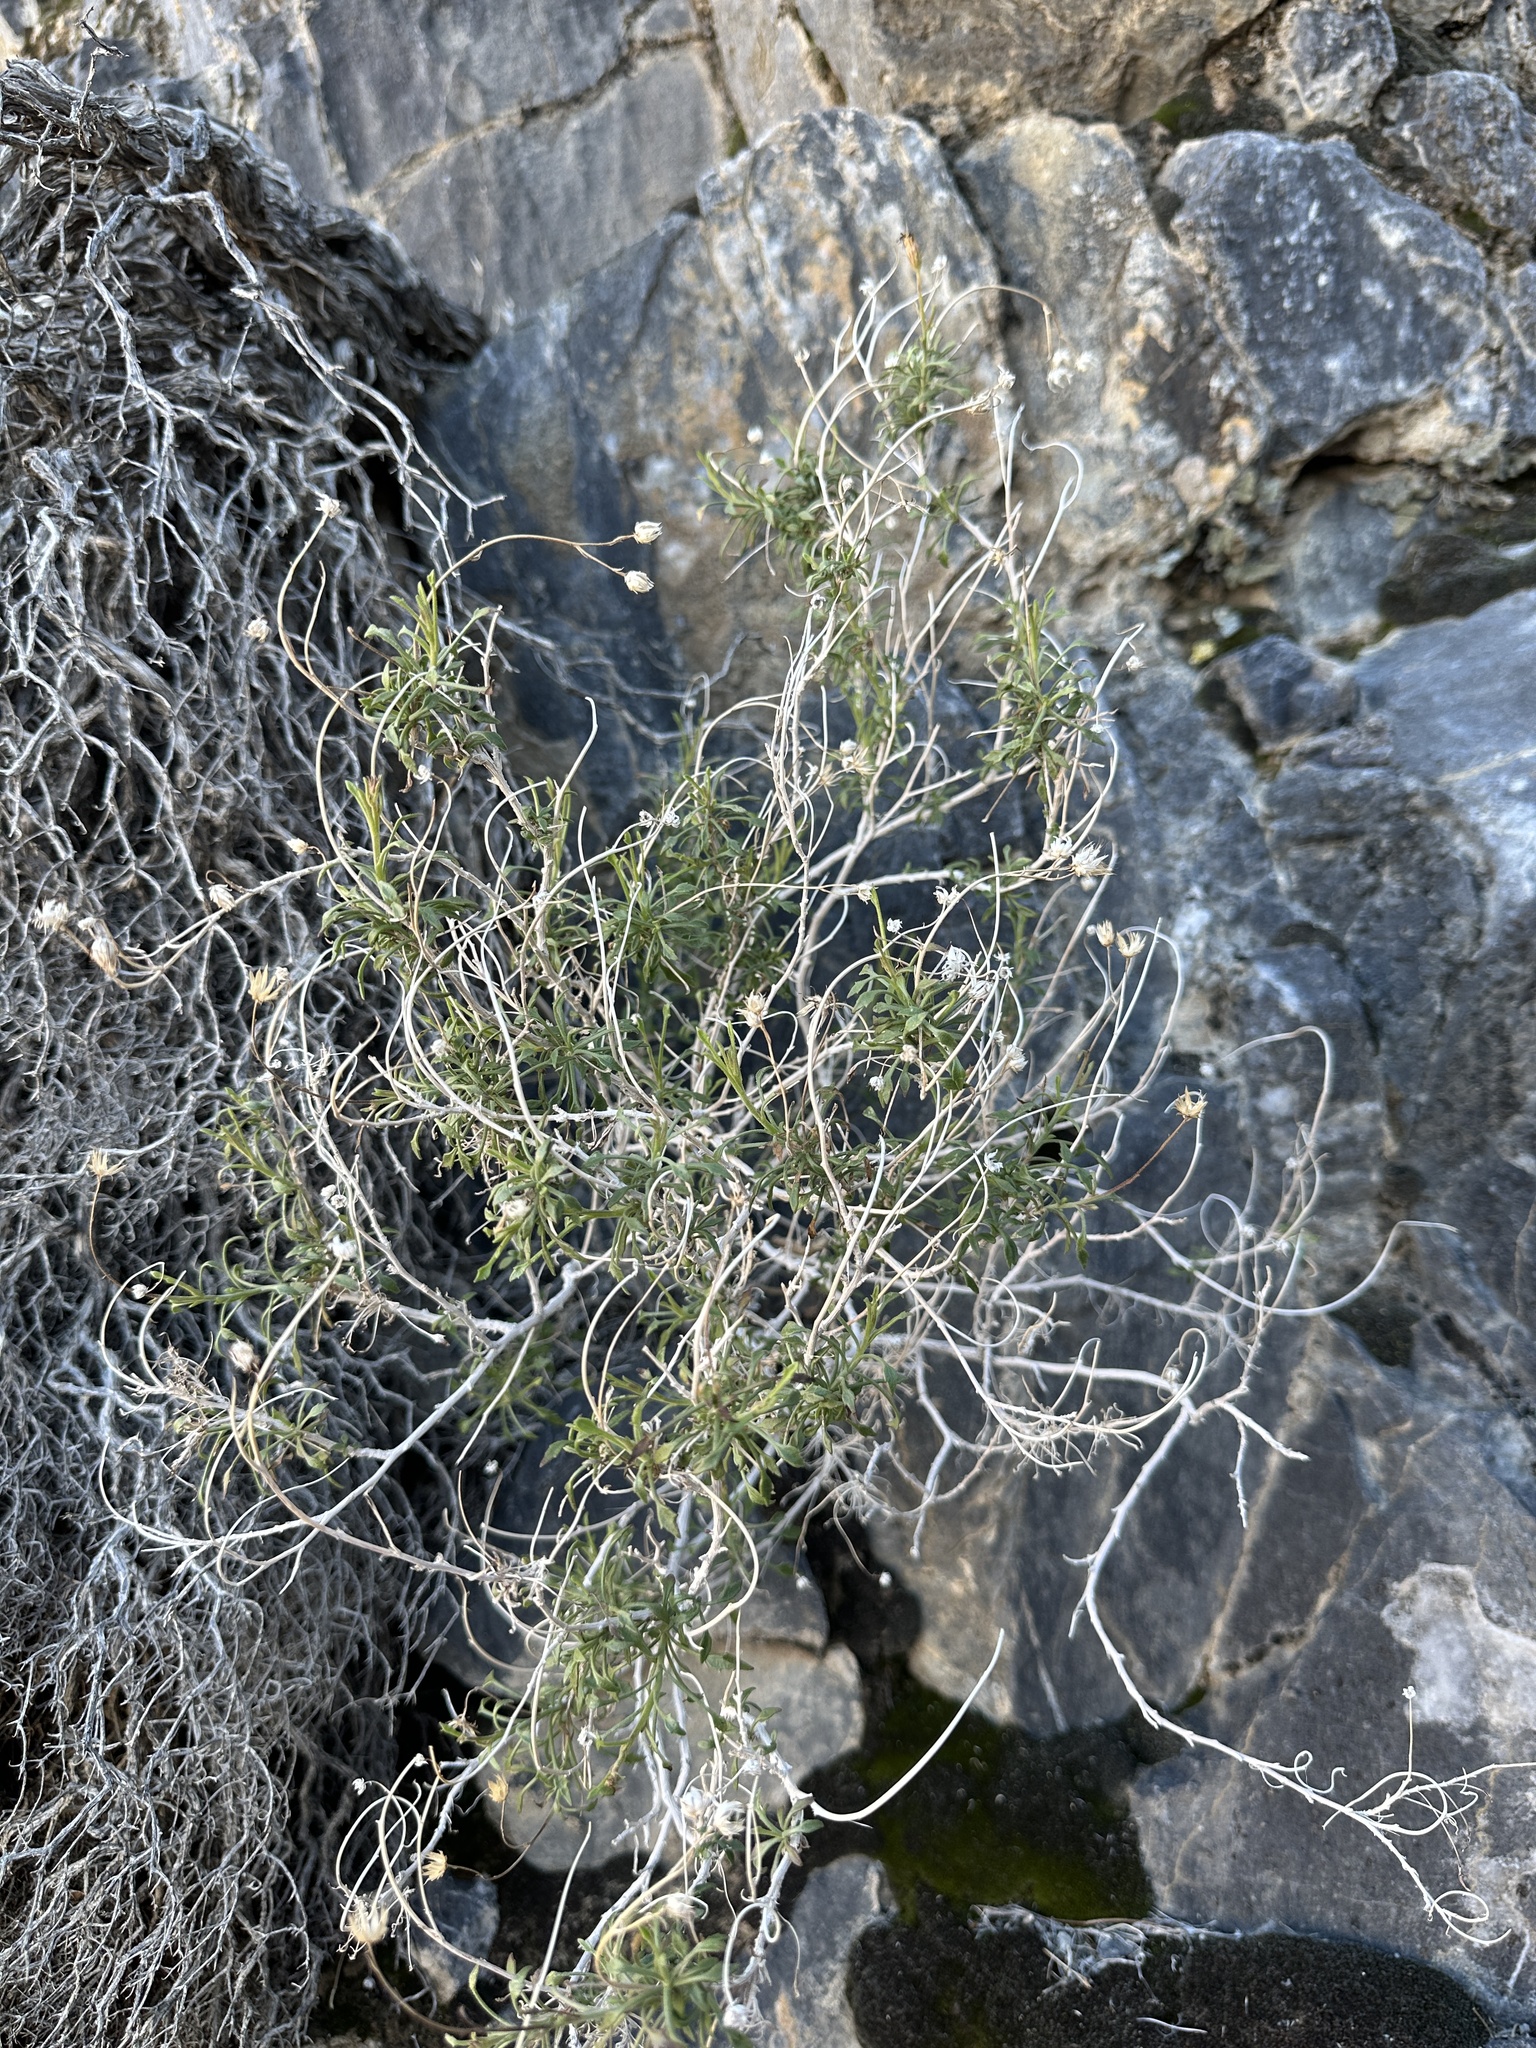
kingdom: Plantae
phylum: Tracheophyta
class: Magnoliopsida
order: Asterales
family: Asteraceae
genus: Pleurocoronis
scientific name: Pleurocoronis pluriseta
